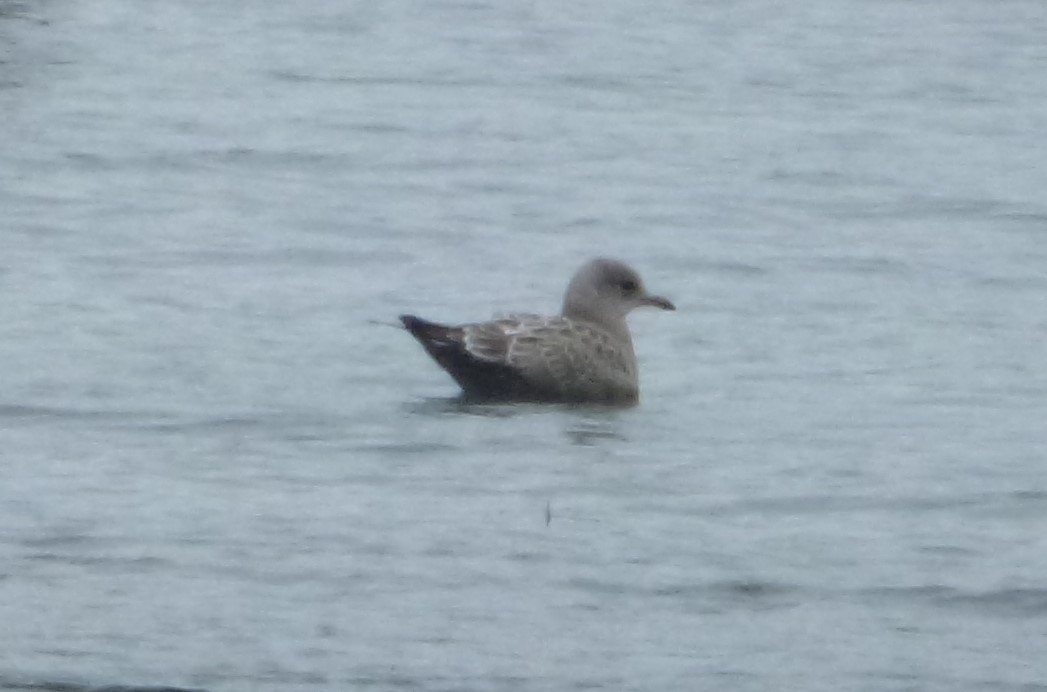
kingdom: Animalia
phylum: Chordata
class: Aves
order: Charadriiformes
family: Laridae
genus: Larus
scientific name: Larus brachyrhynchus
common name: Short-billed gull
